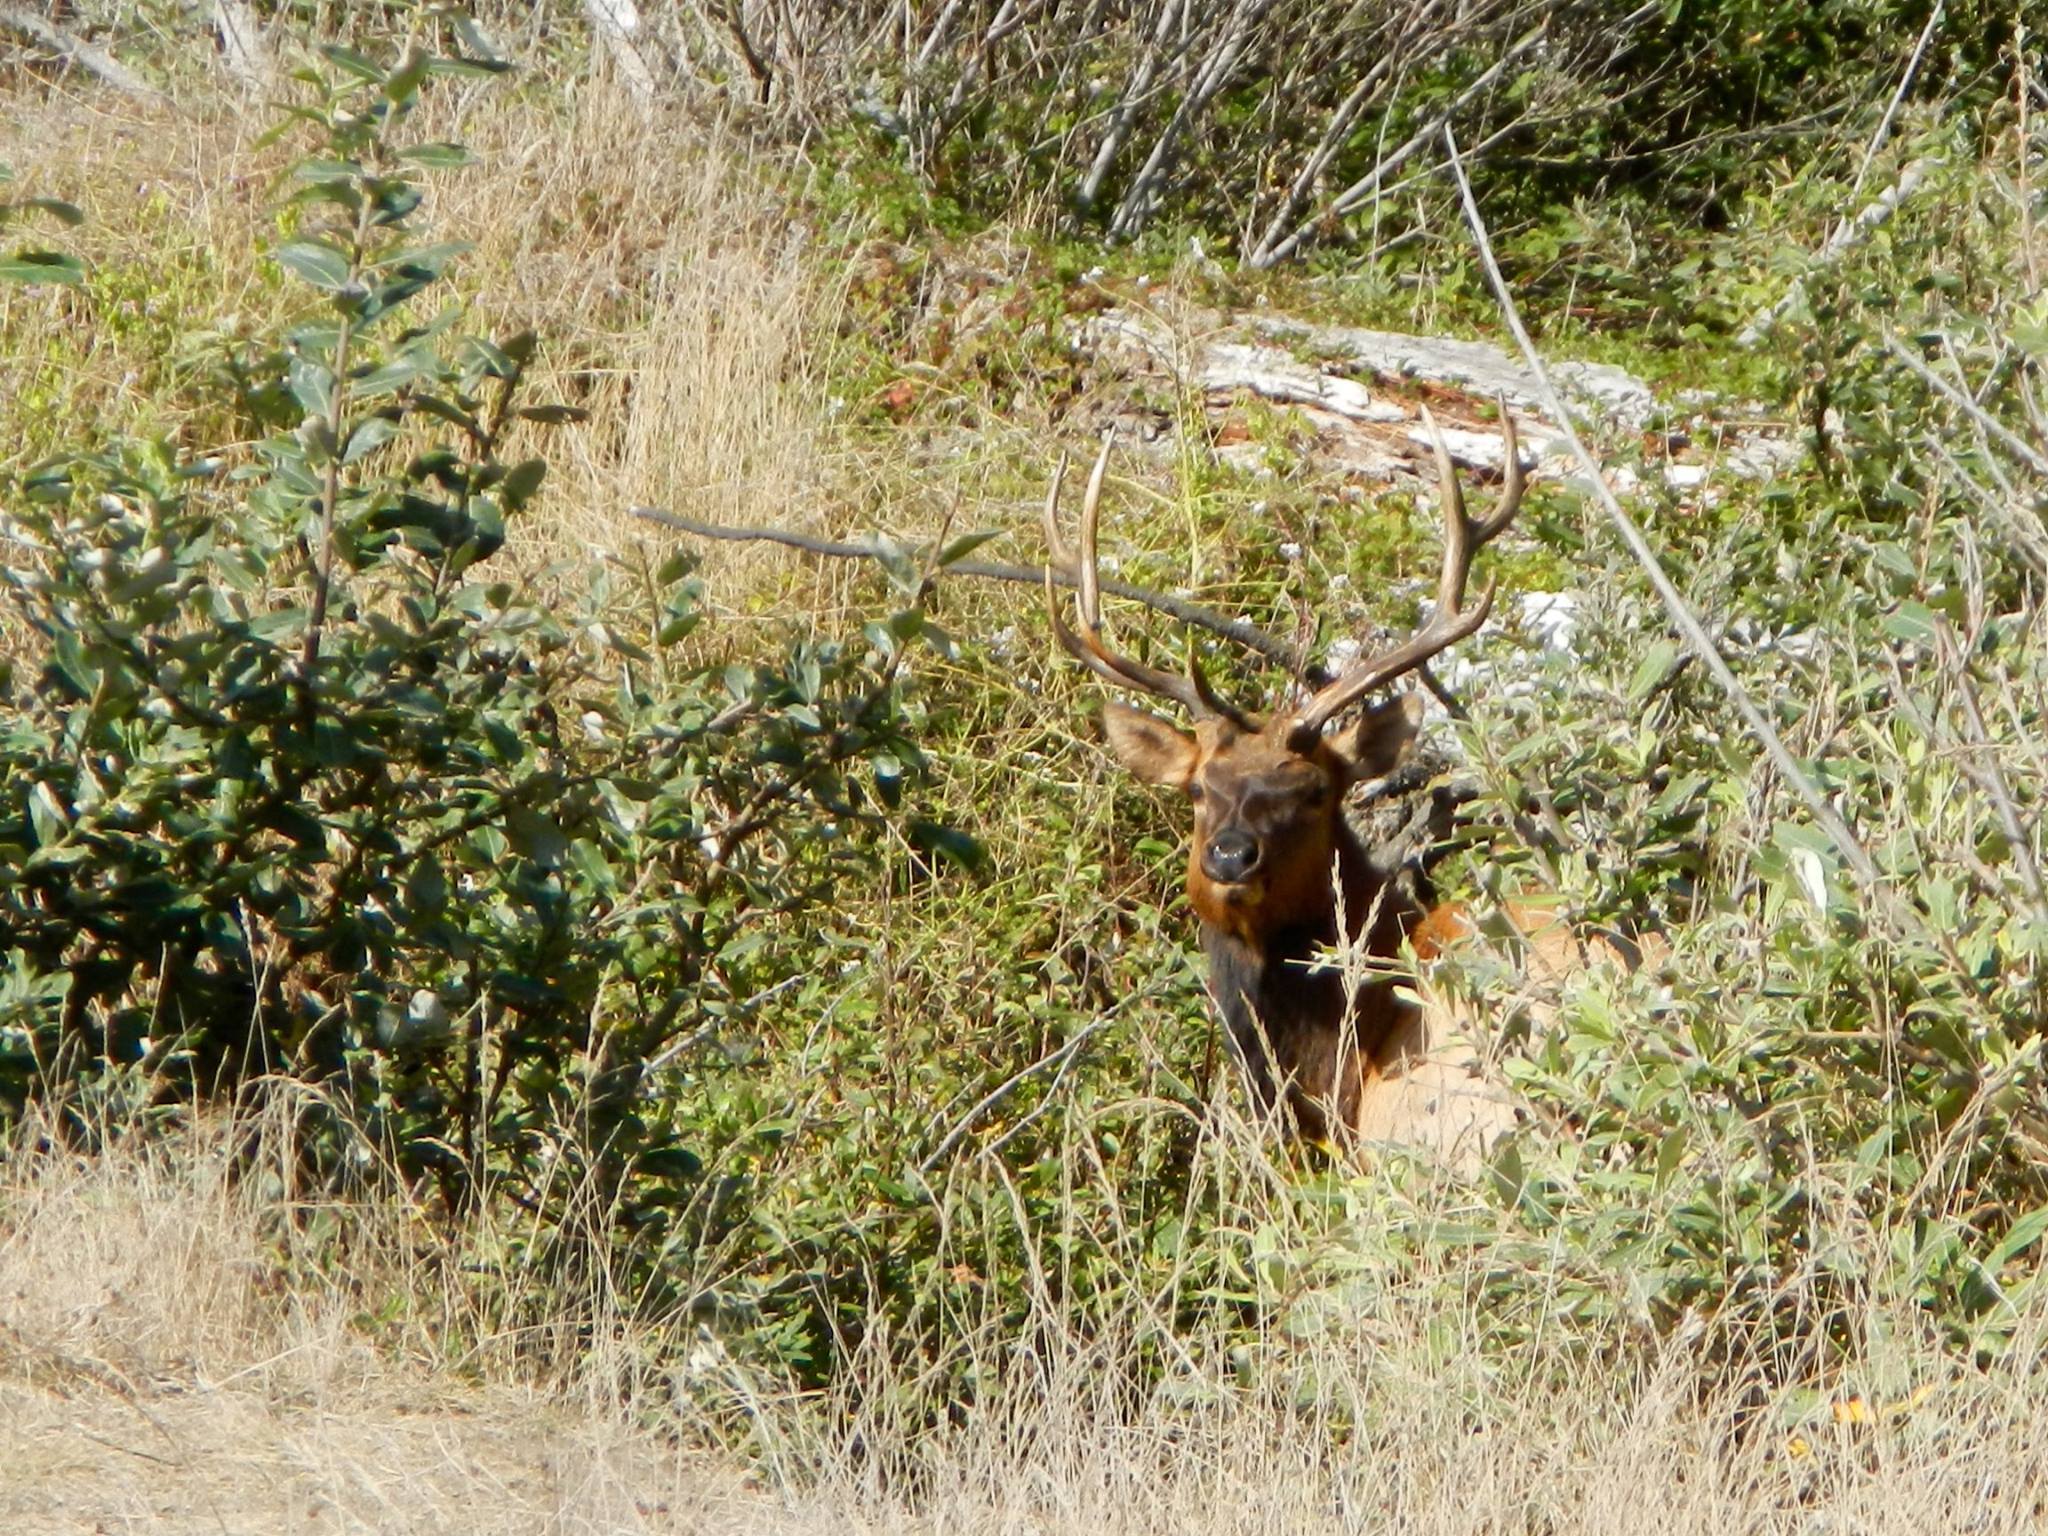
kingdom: Animalia
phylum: Chordata
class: Mammalia
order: Artiodactyla
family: Cervidae
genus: Cervus
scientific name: Cervus elaphus
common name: Red deer
